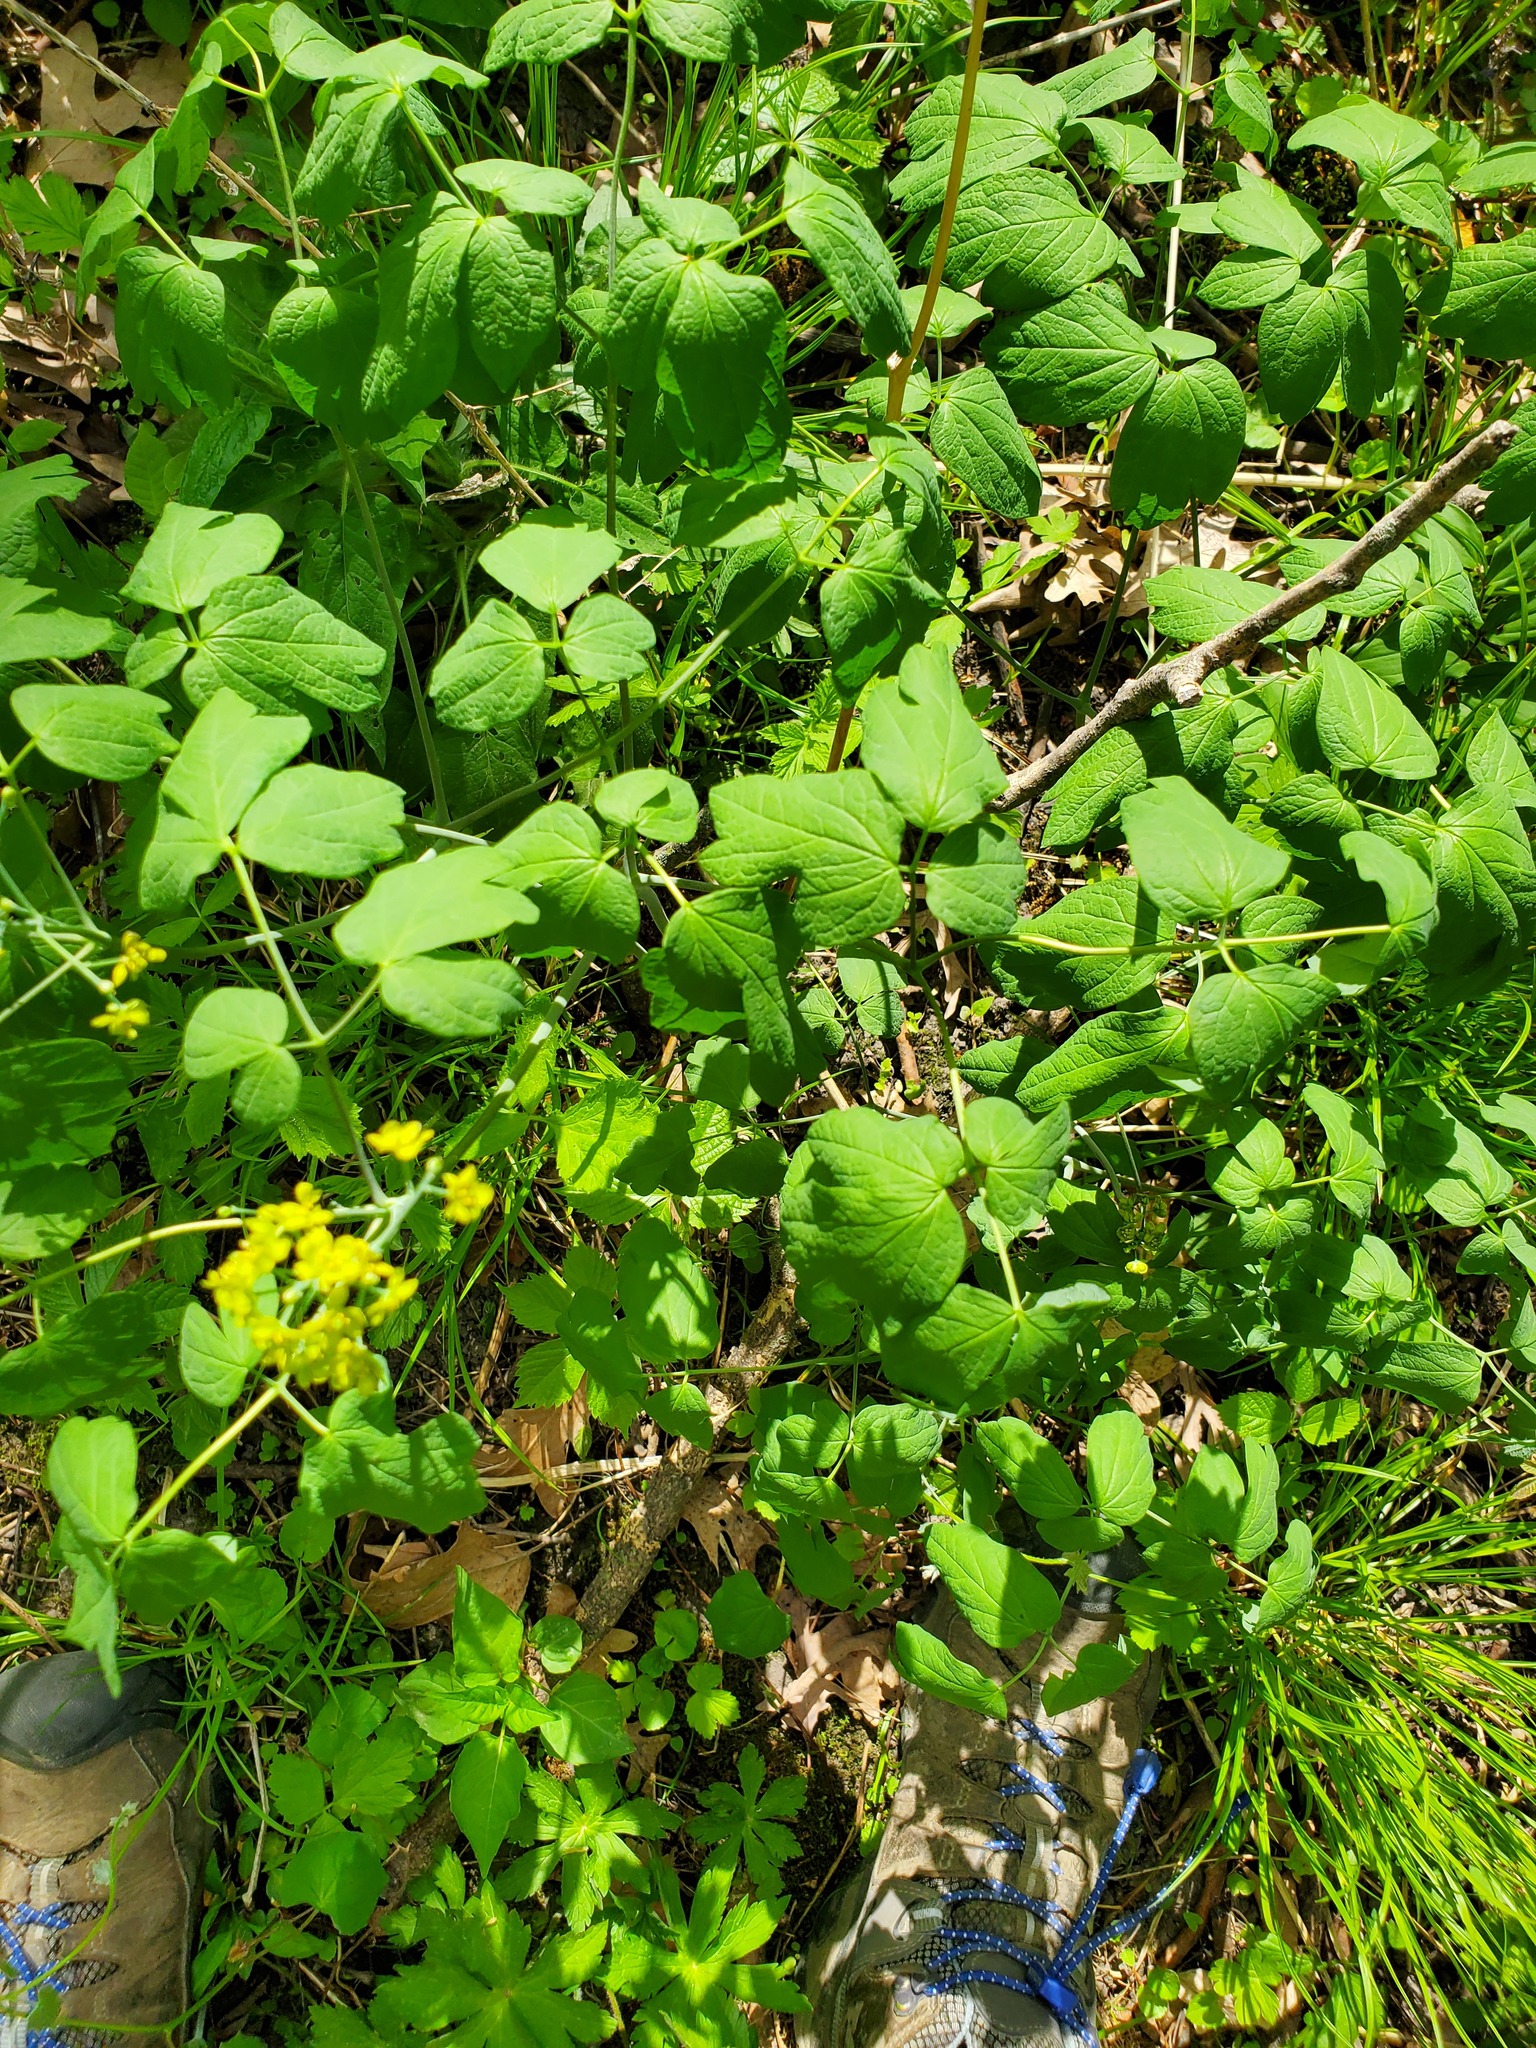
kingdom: Plantae
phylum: Tracheophyta
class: Magnoliopsida
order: Ranunculales
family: Berberidaceae
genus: Caulophyllum
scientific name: Caulophyllum thalictroides
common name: Blue cohosh
